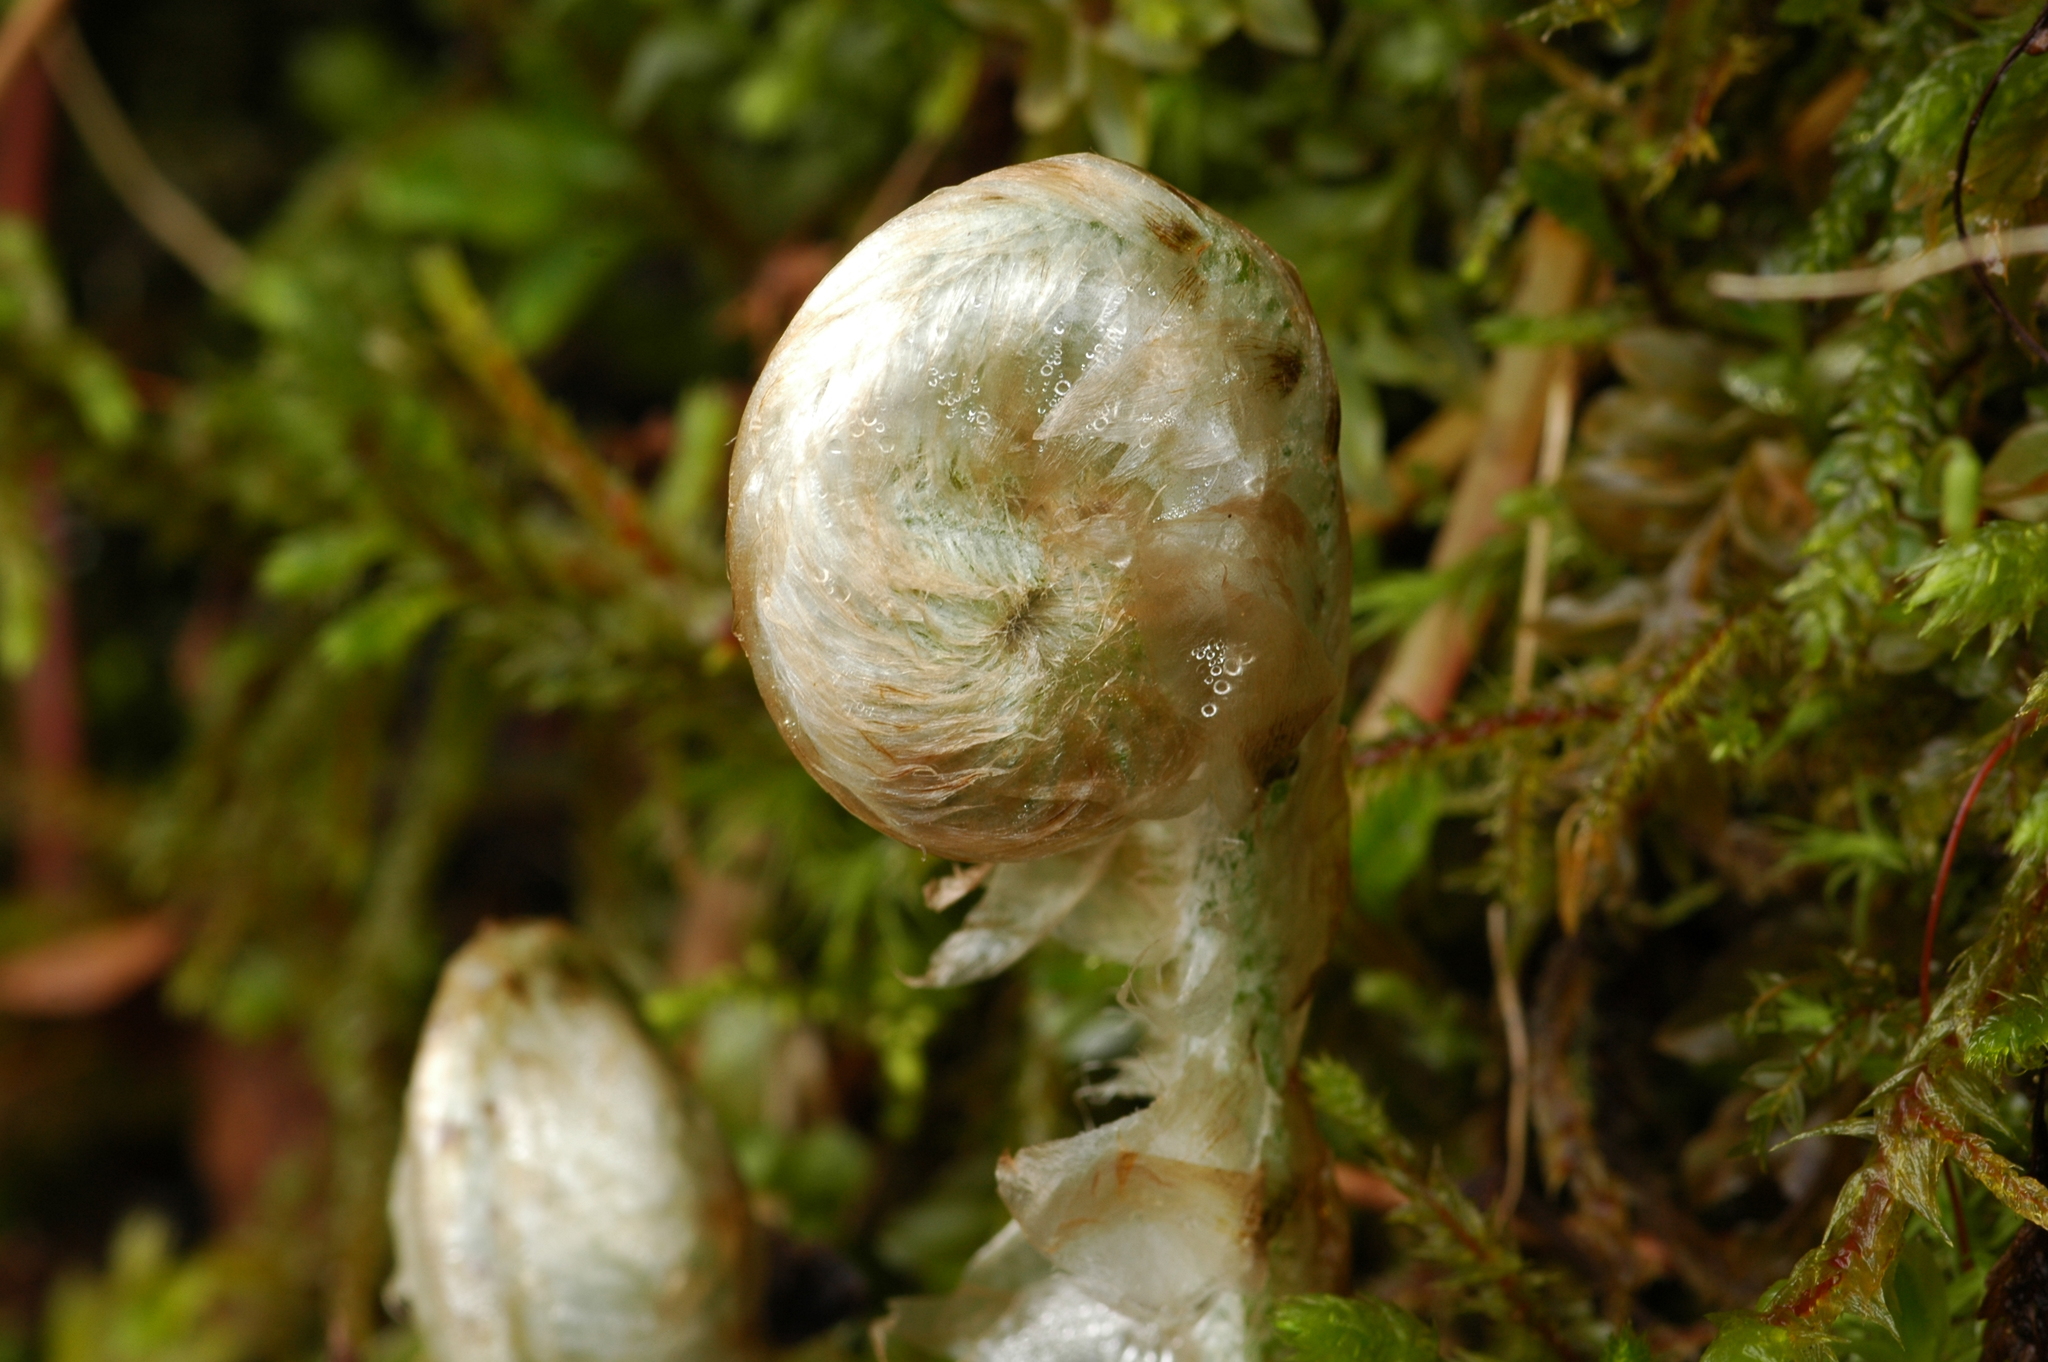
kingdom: Plantae
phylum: Tracheophyta
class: Polypodiopsida
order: Polypodiales
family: Dryopteridaceae
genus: Polystichum
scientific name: Polystichum andersonii
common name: Anderson's holly fern
